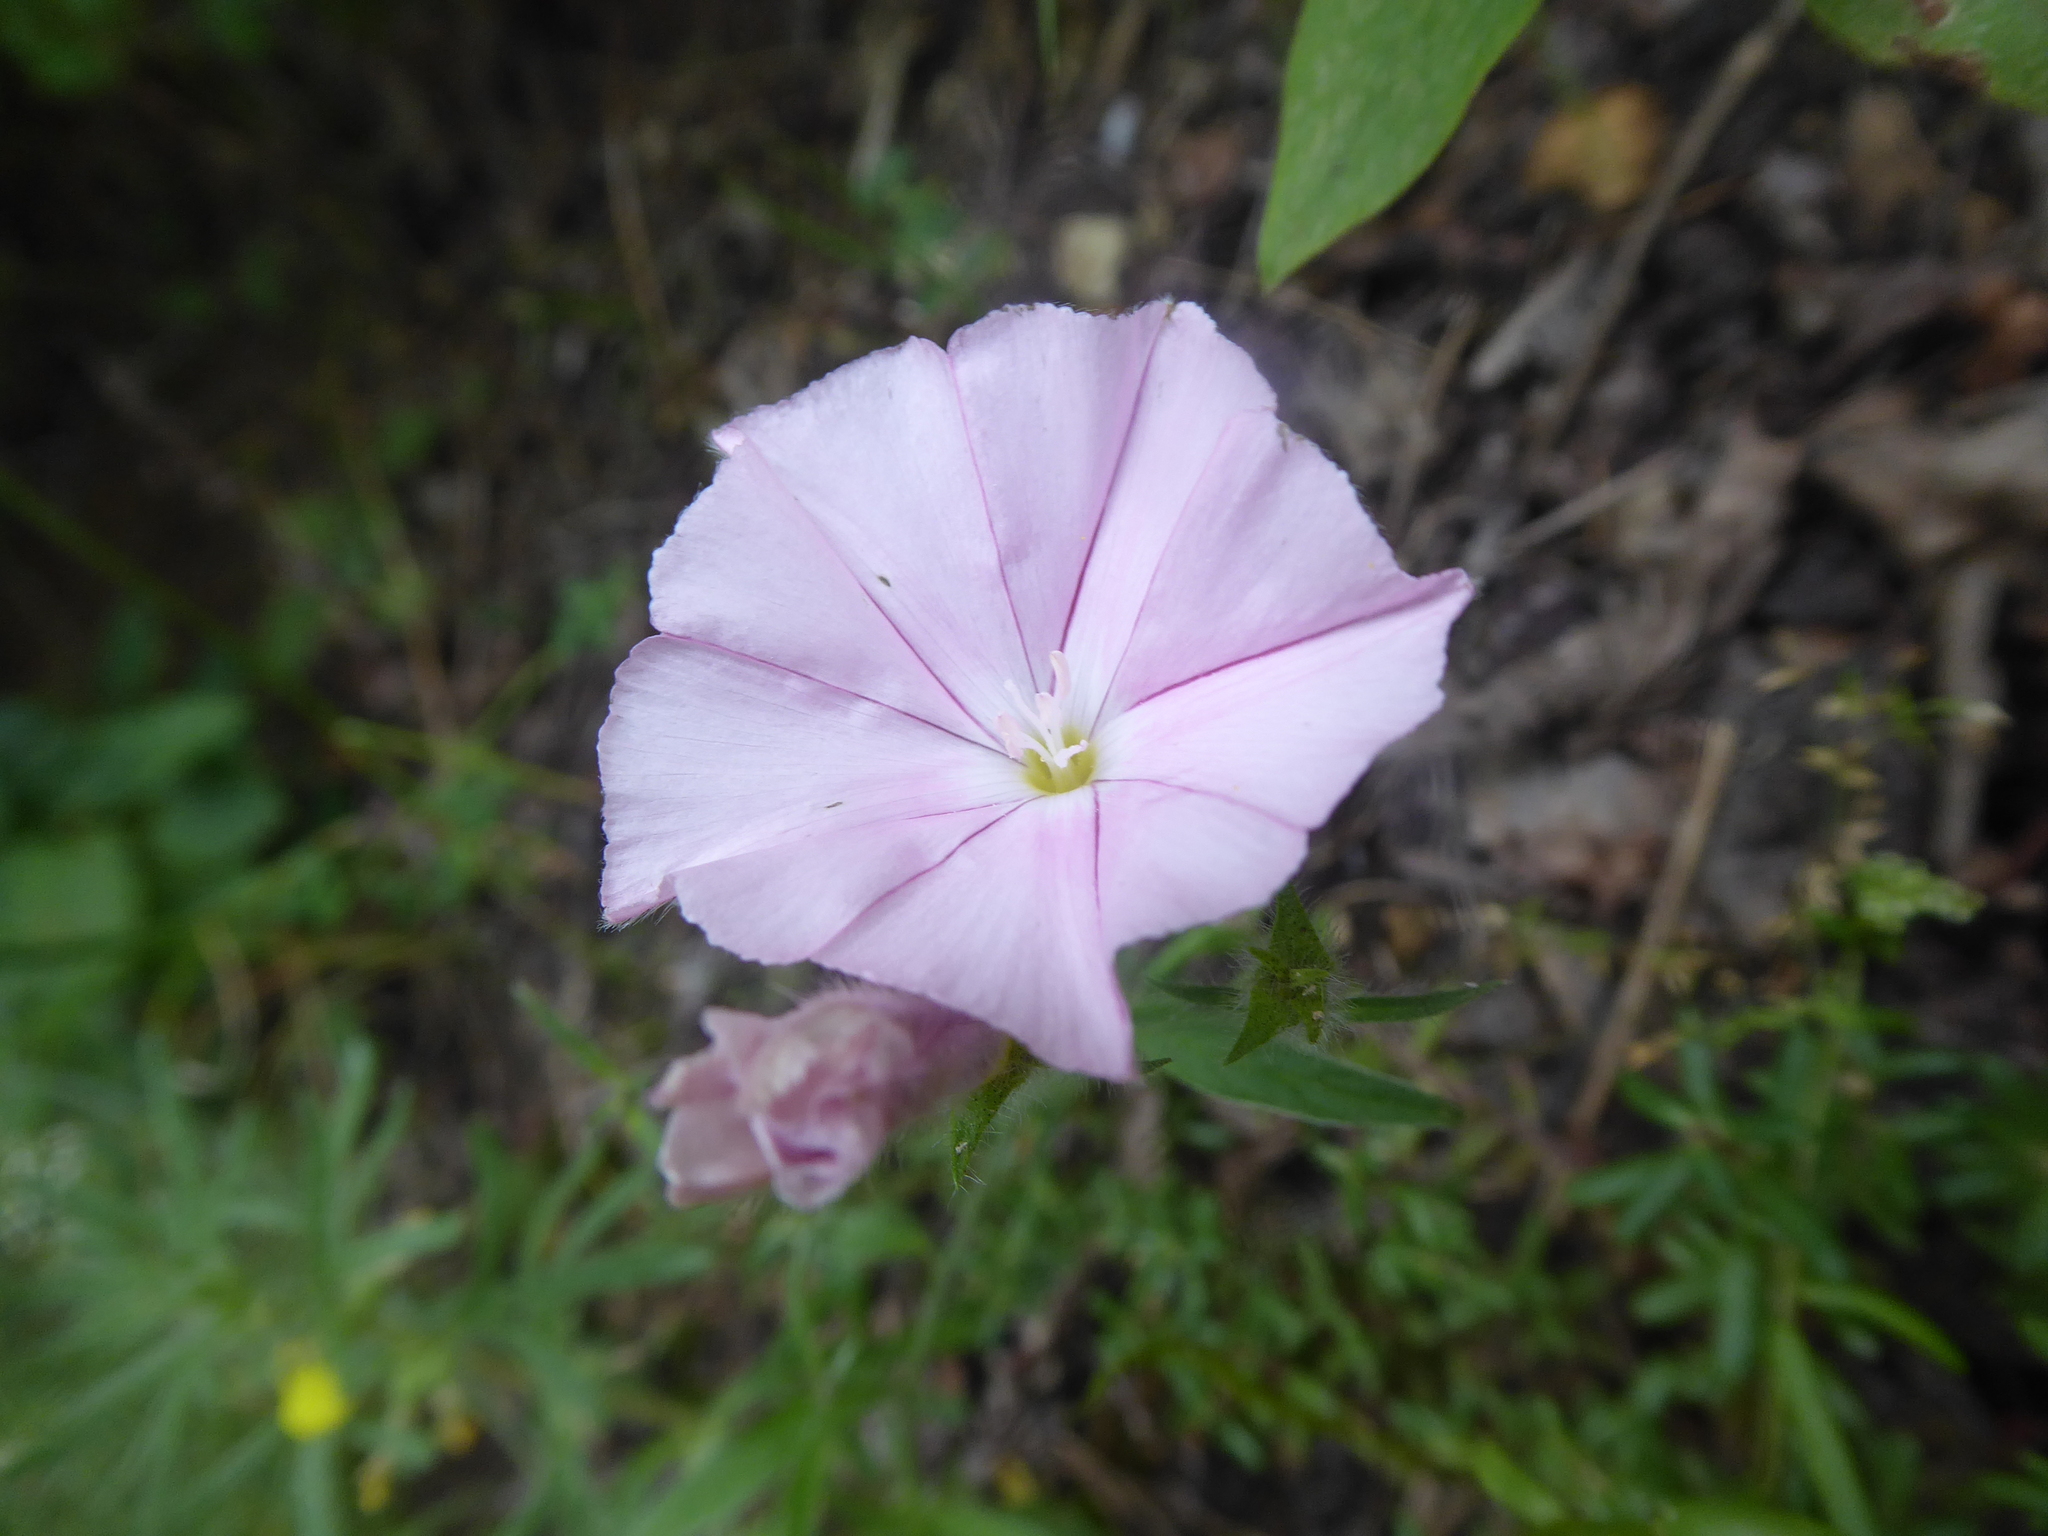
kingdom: Plantae
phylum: Tracheophyta
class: Magnoliopsida
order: Solanales
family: Convolvulaceae
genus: Convolvulus
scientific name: Convolvulus cantabrica
